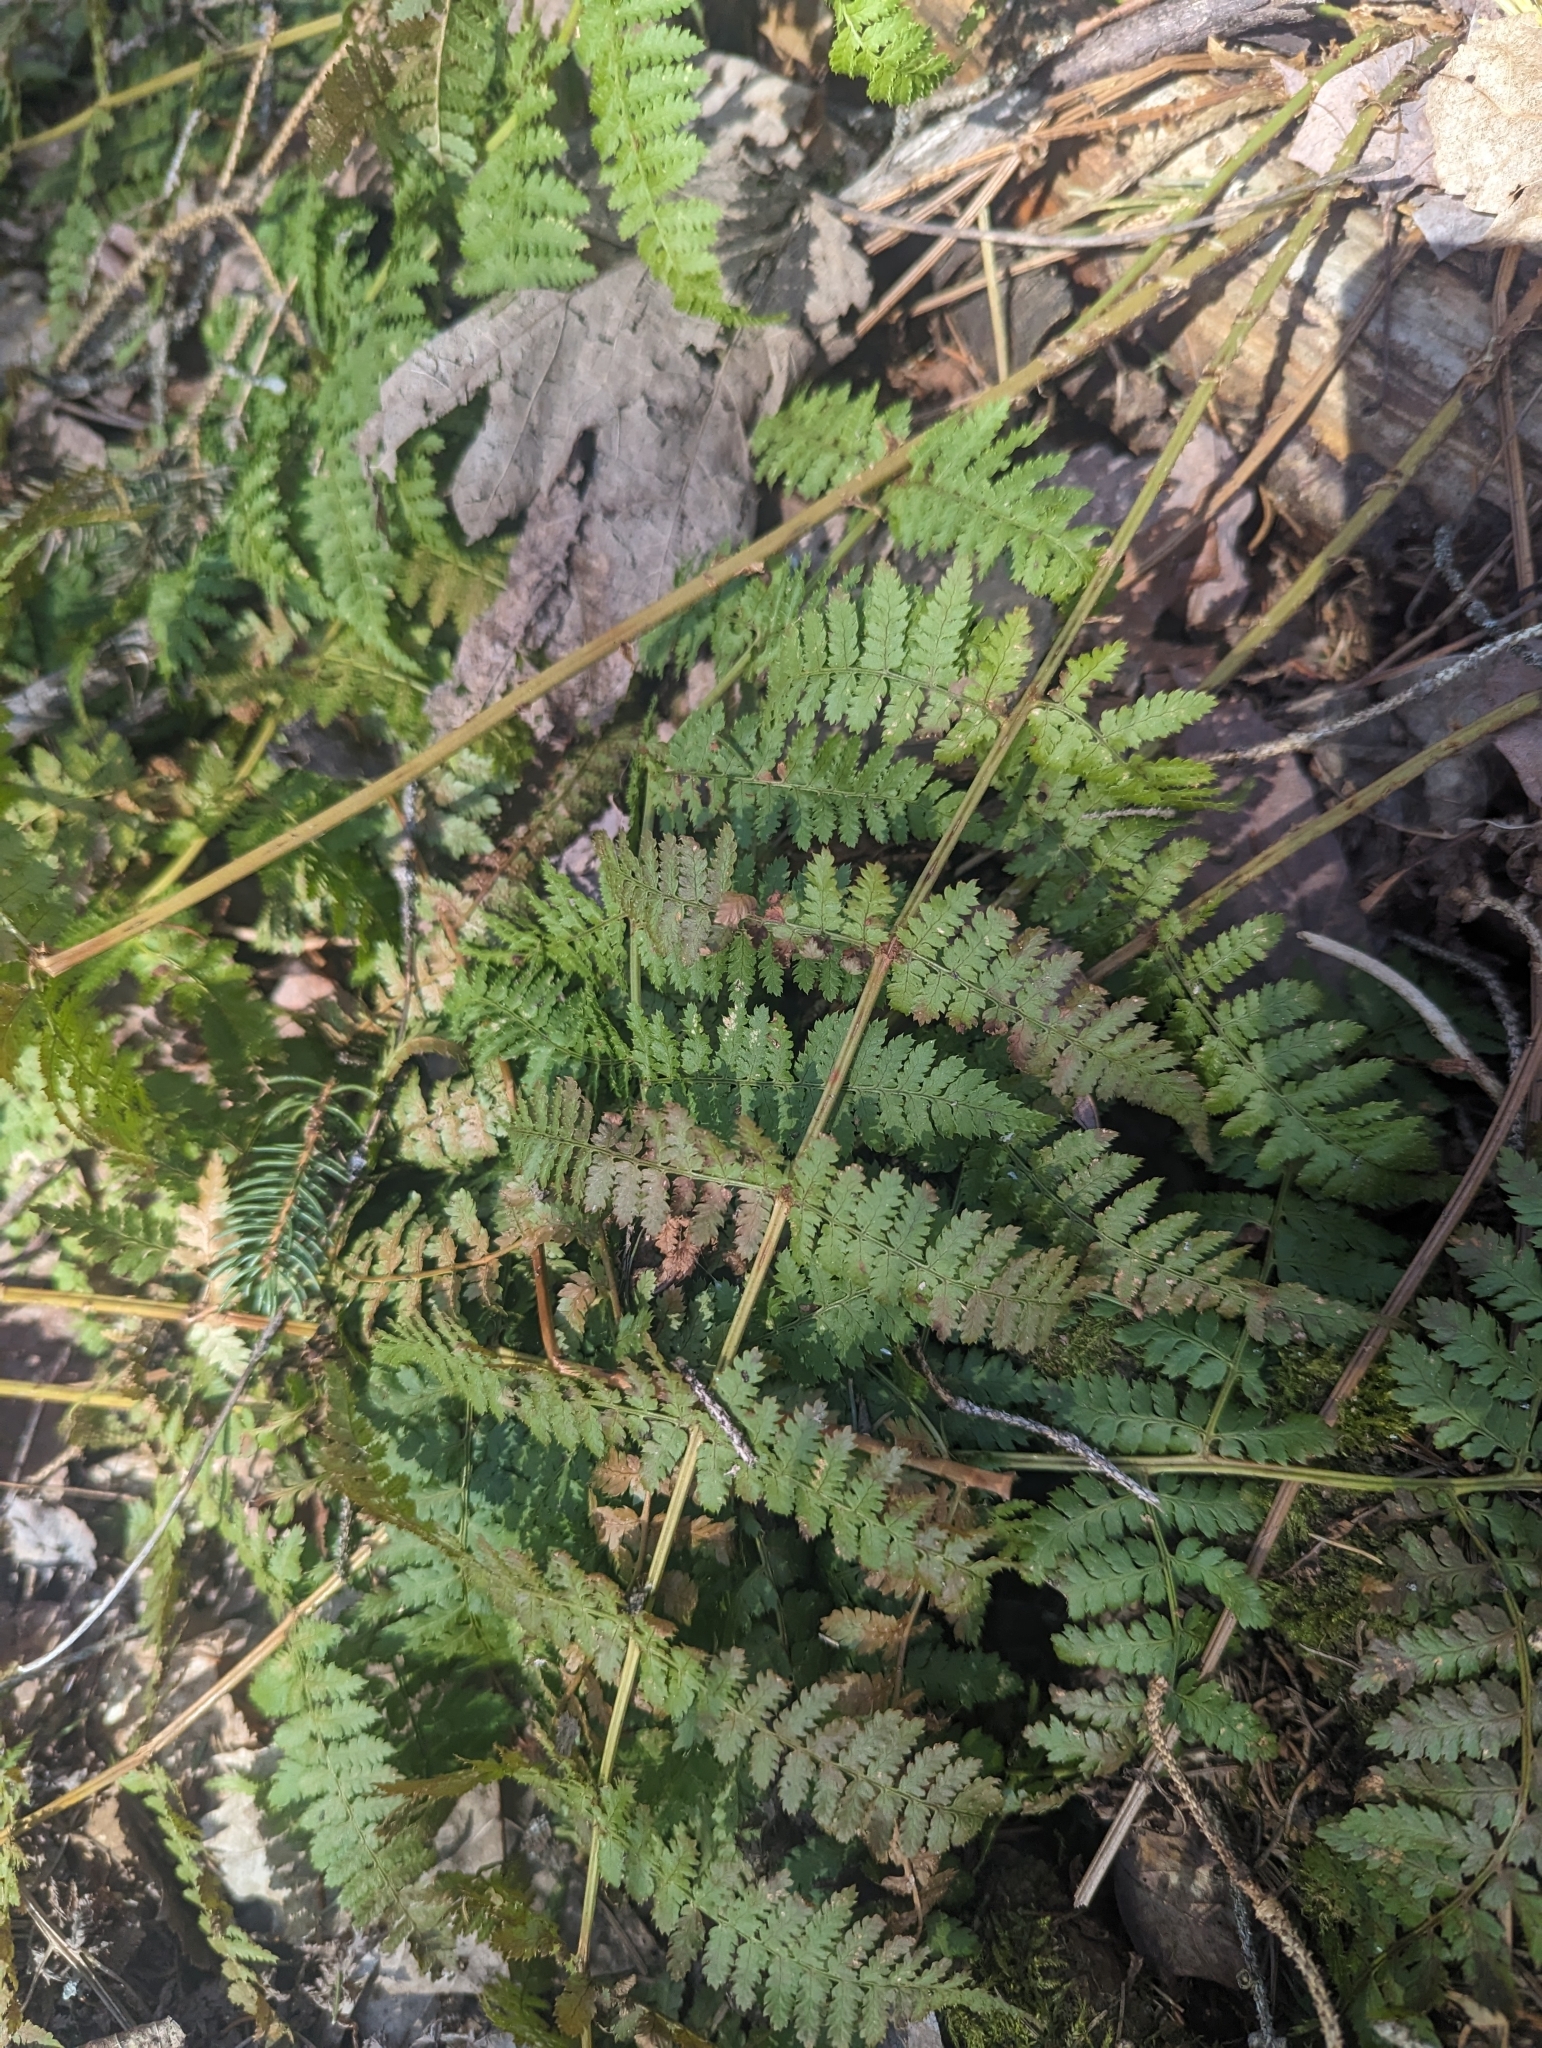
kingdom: Plantae
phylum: Tracheophyta
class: Polypodiopsida
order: Polypodiales
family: Dryopteridaceae
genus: Dryopteris
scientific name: Dryopteris intermedia
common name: Evergreen wood fern
